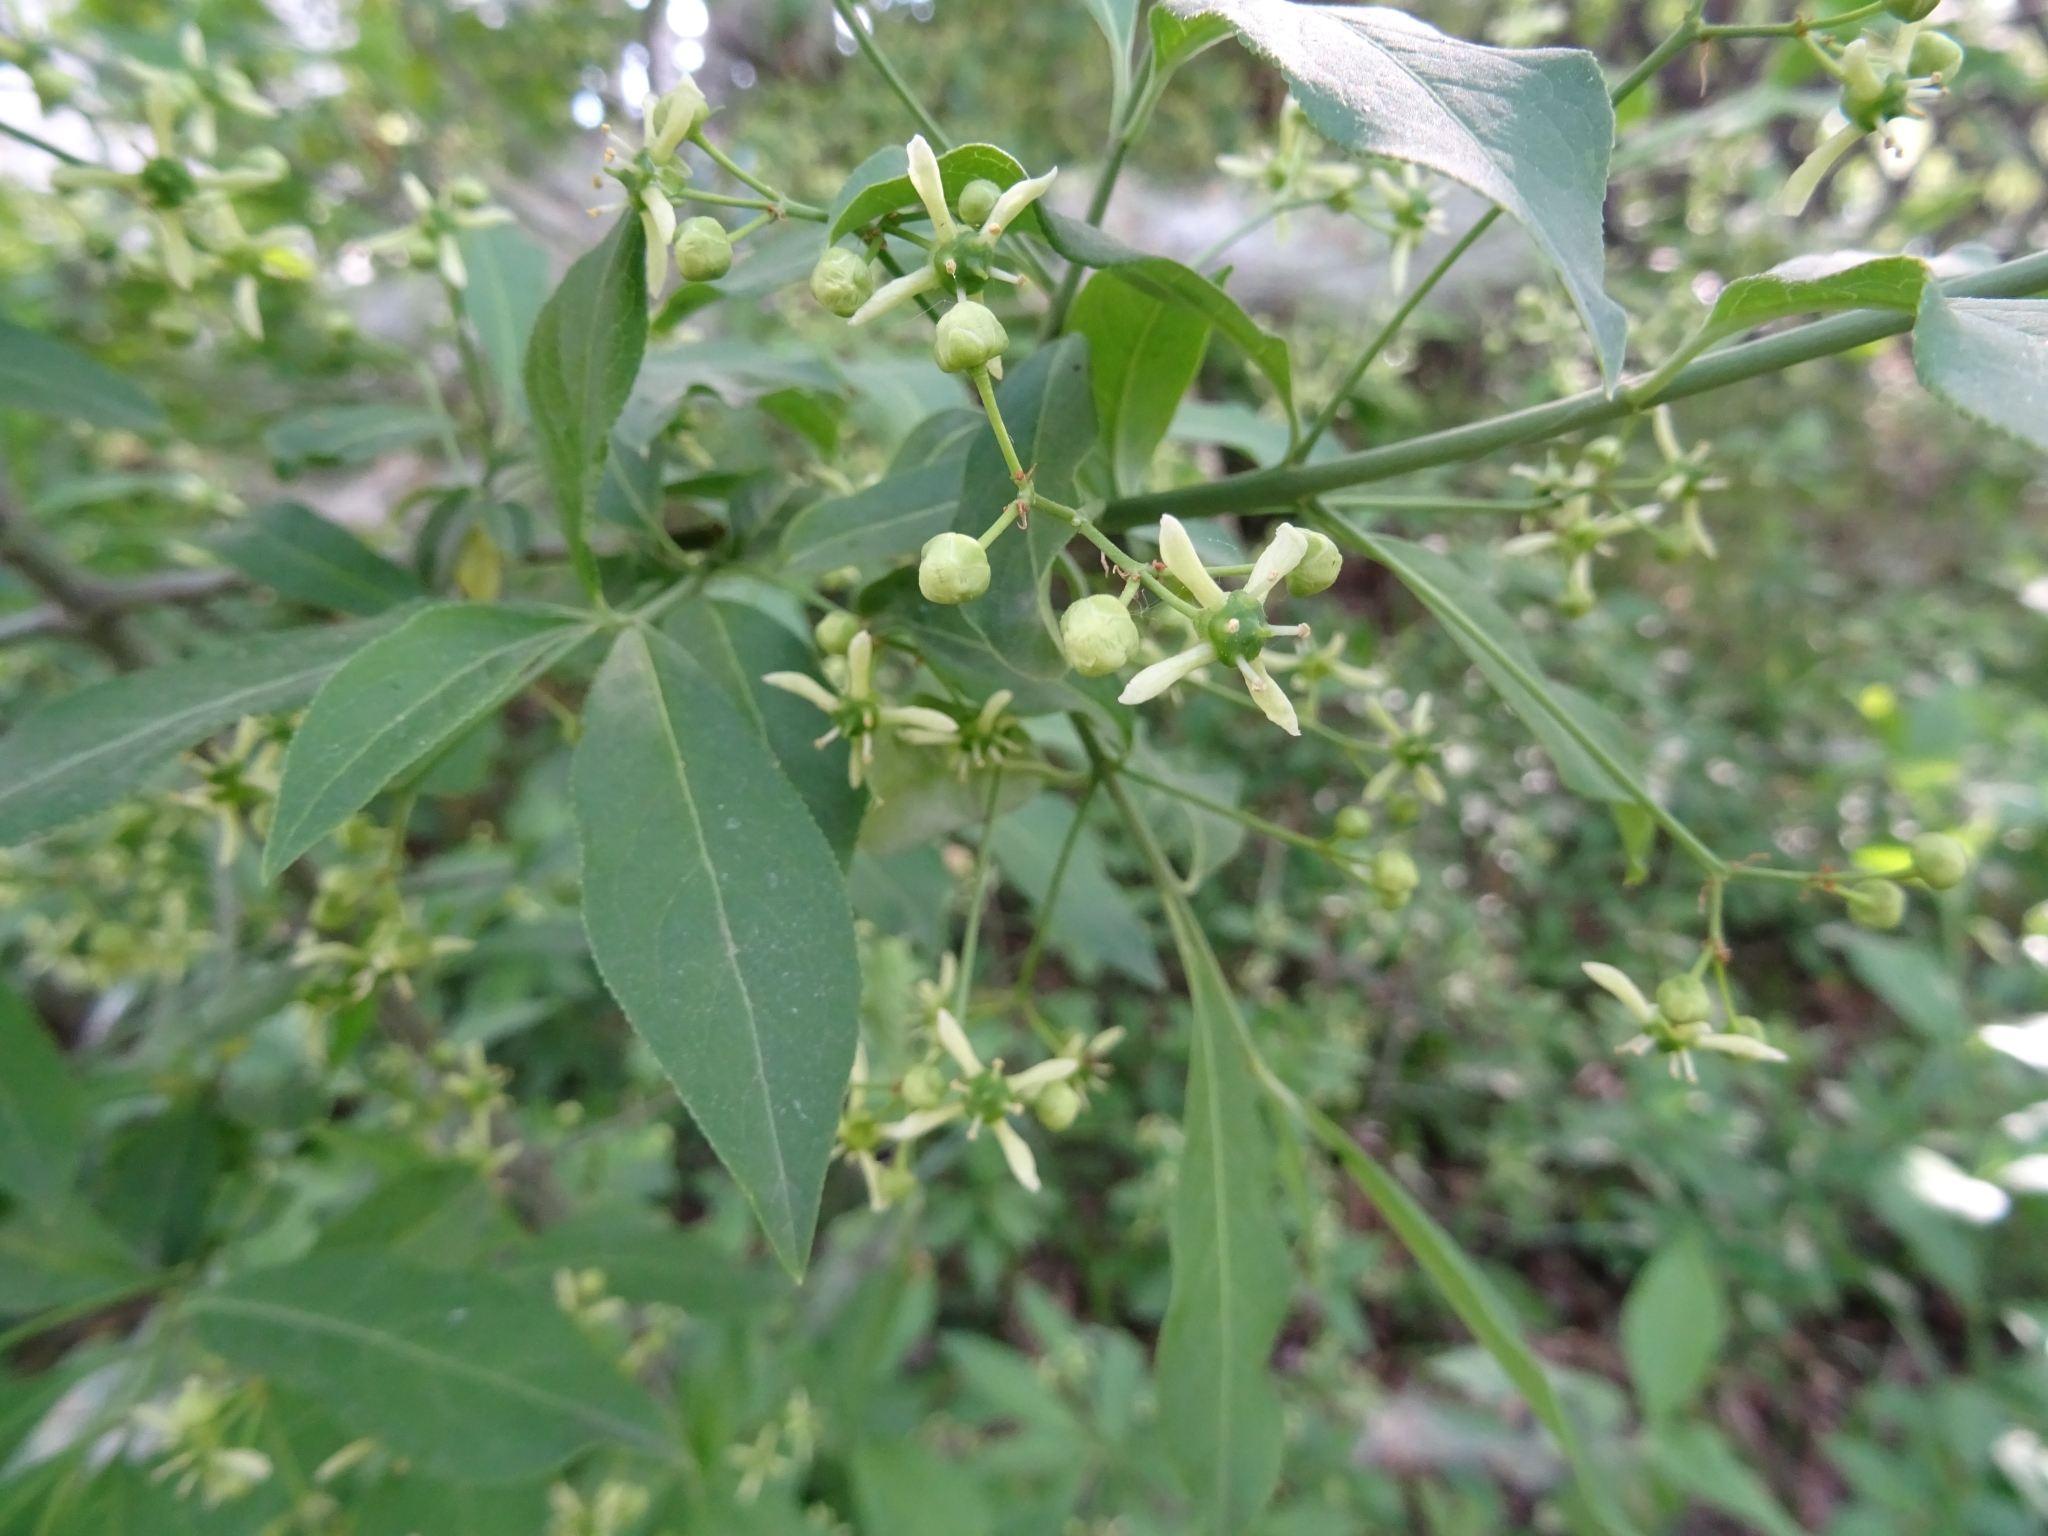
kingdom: Plantae
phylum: Tracheophyta
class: Magnoliopsida
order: Celastrales
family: Celastraceae
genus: Euonymus
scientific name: Euonymus europaeus
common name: Spindle
